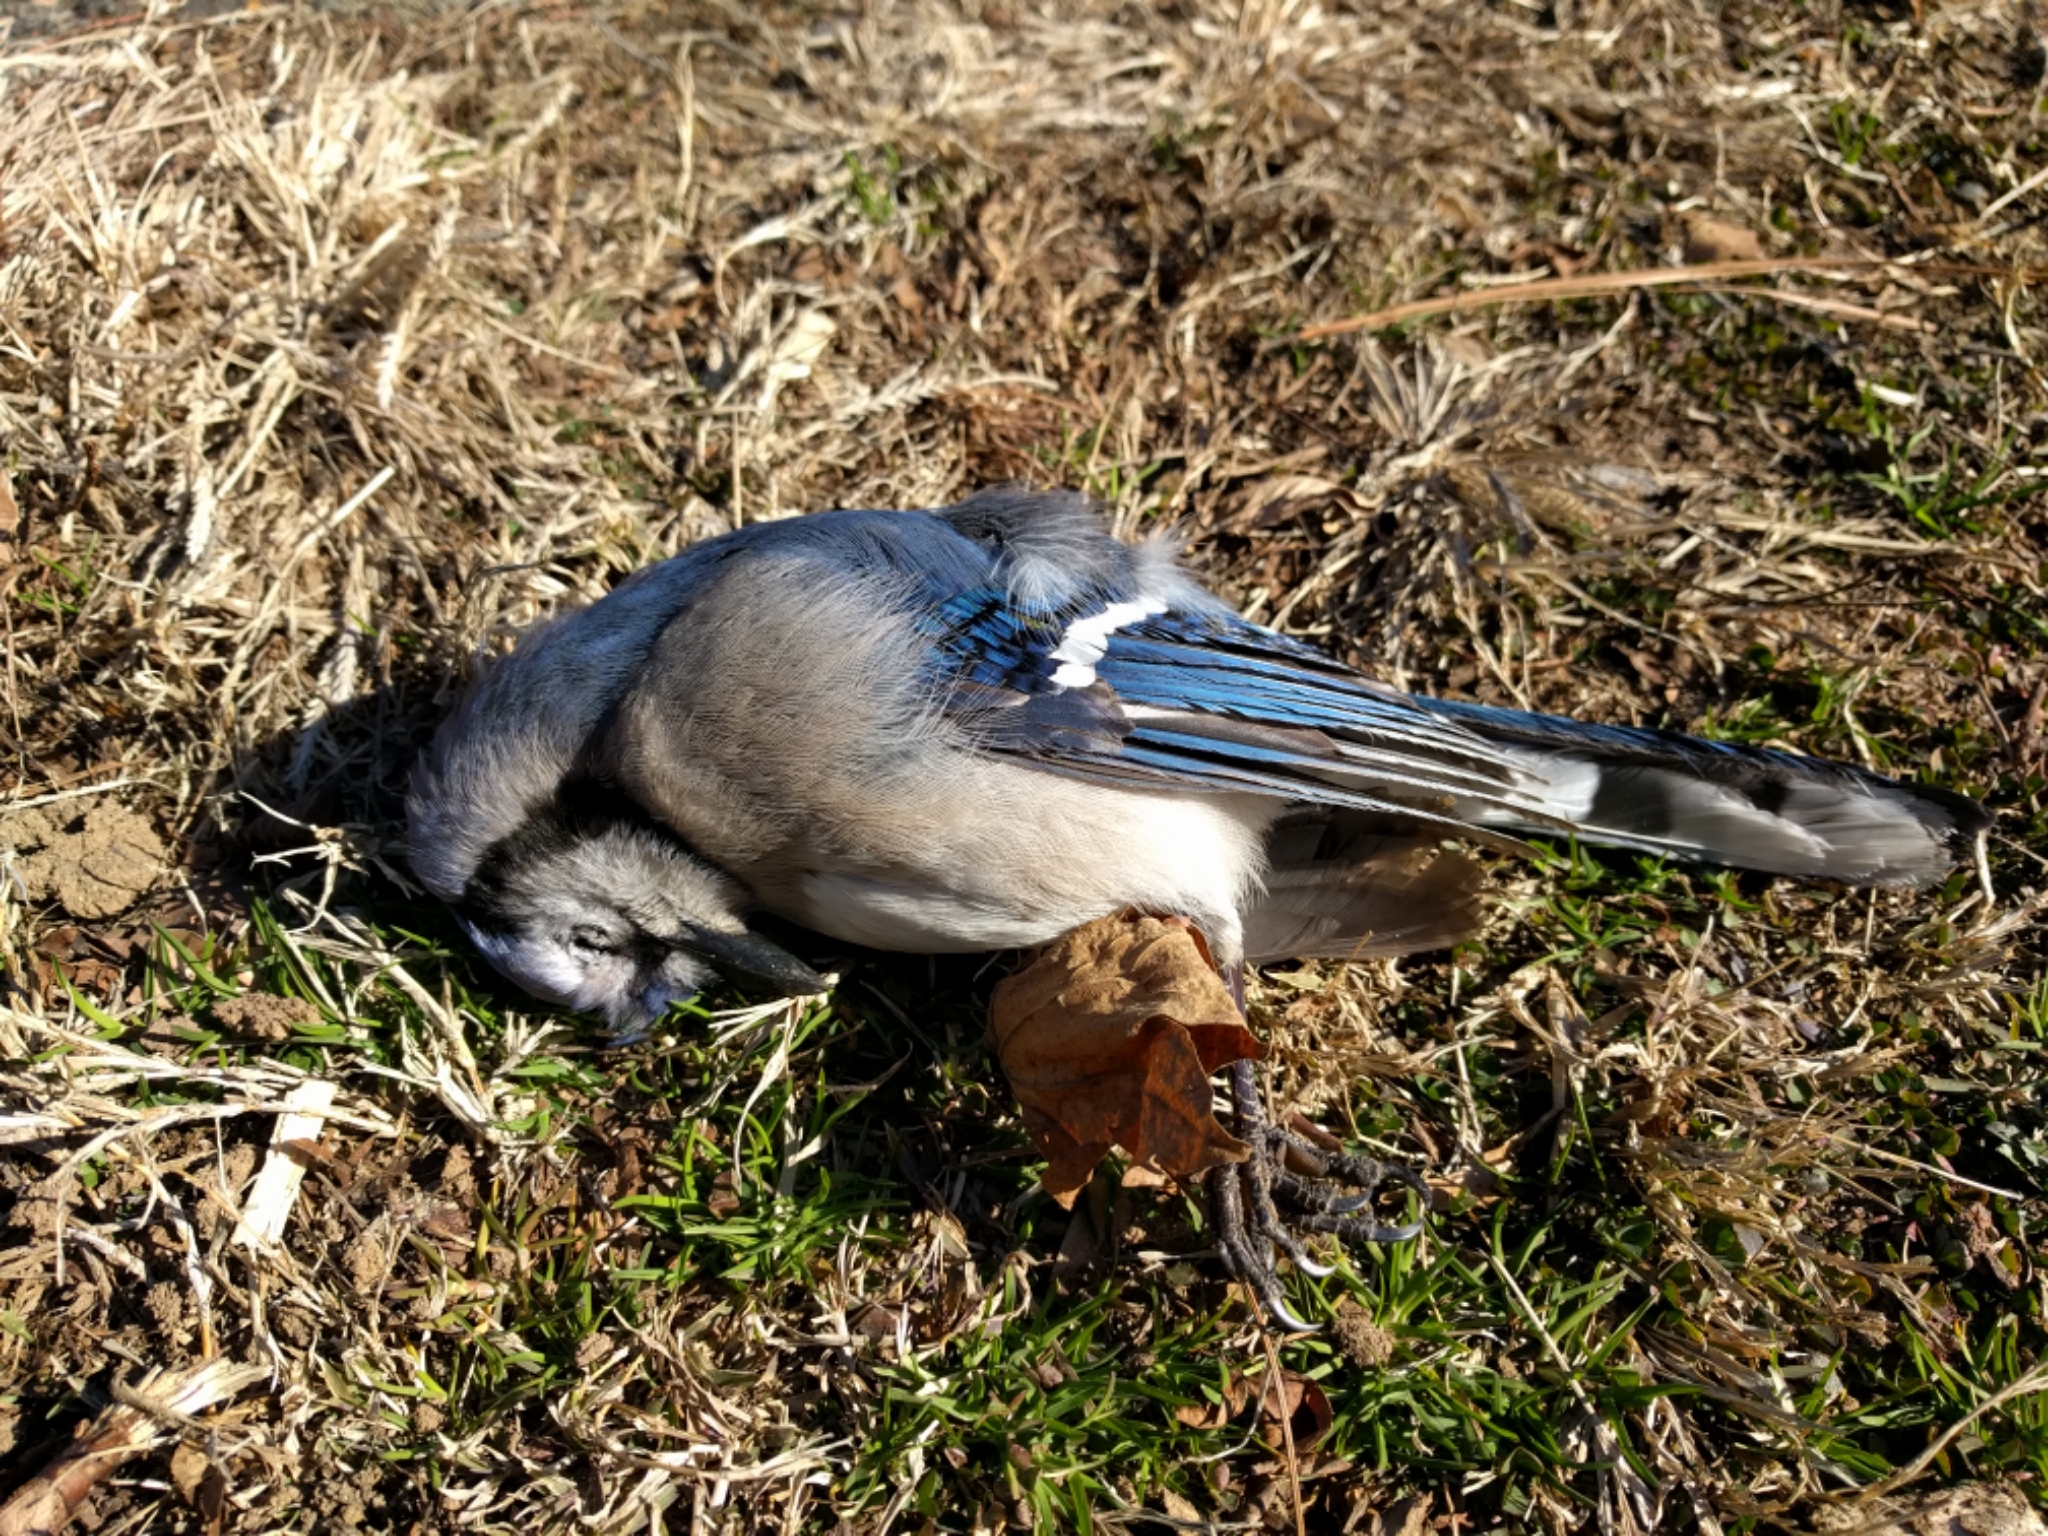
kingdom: Animalia
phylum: Chordata
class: Aves
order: Passeriformes
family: Corvidae
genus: Cyanocitta
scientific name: Cyanocitta cristata
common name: Blue jay
